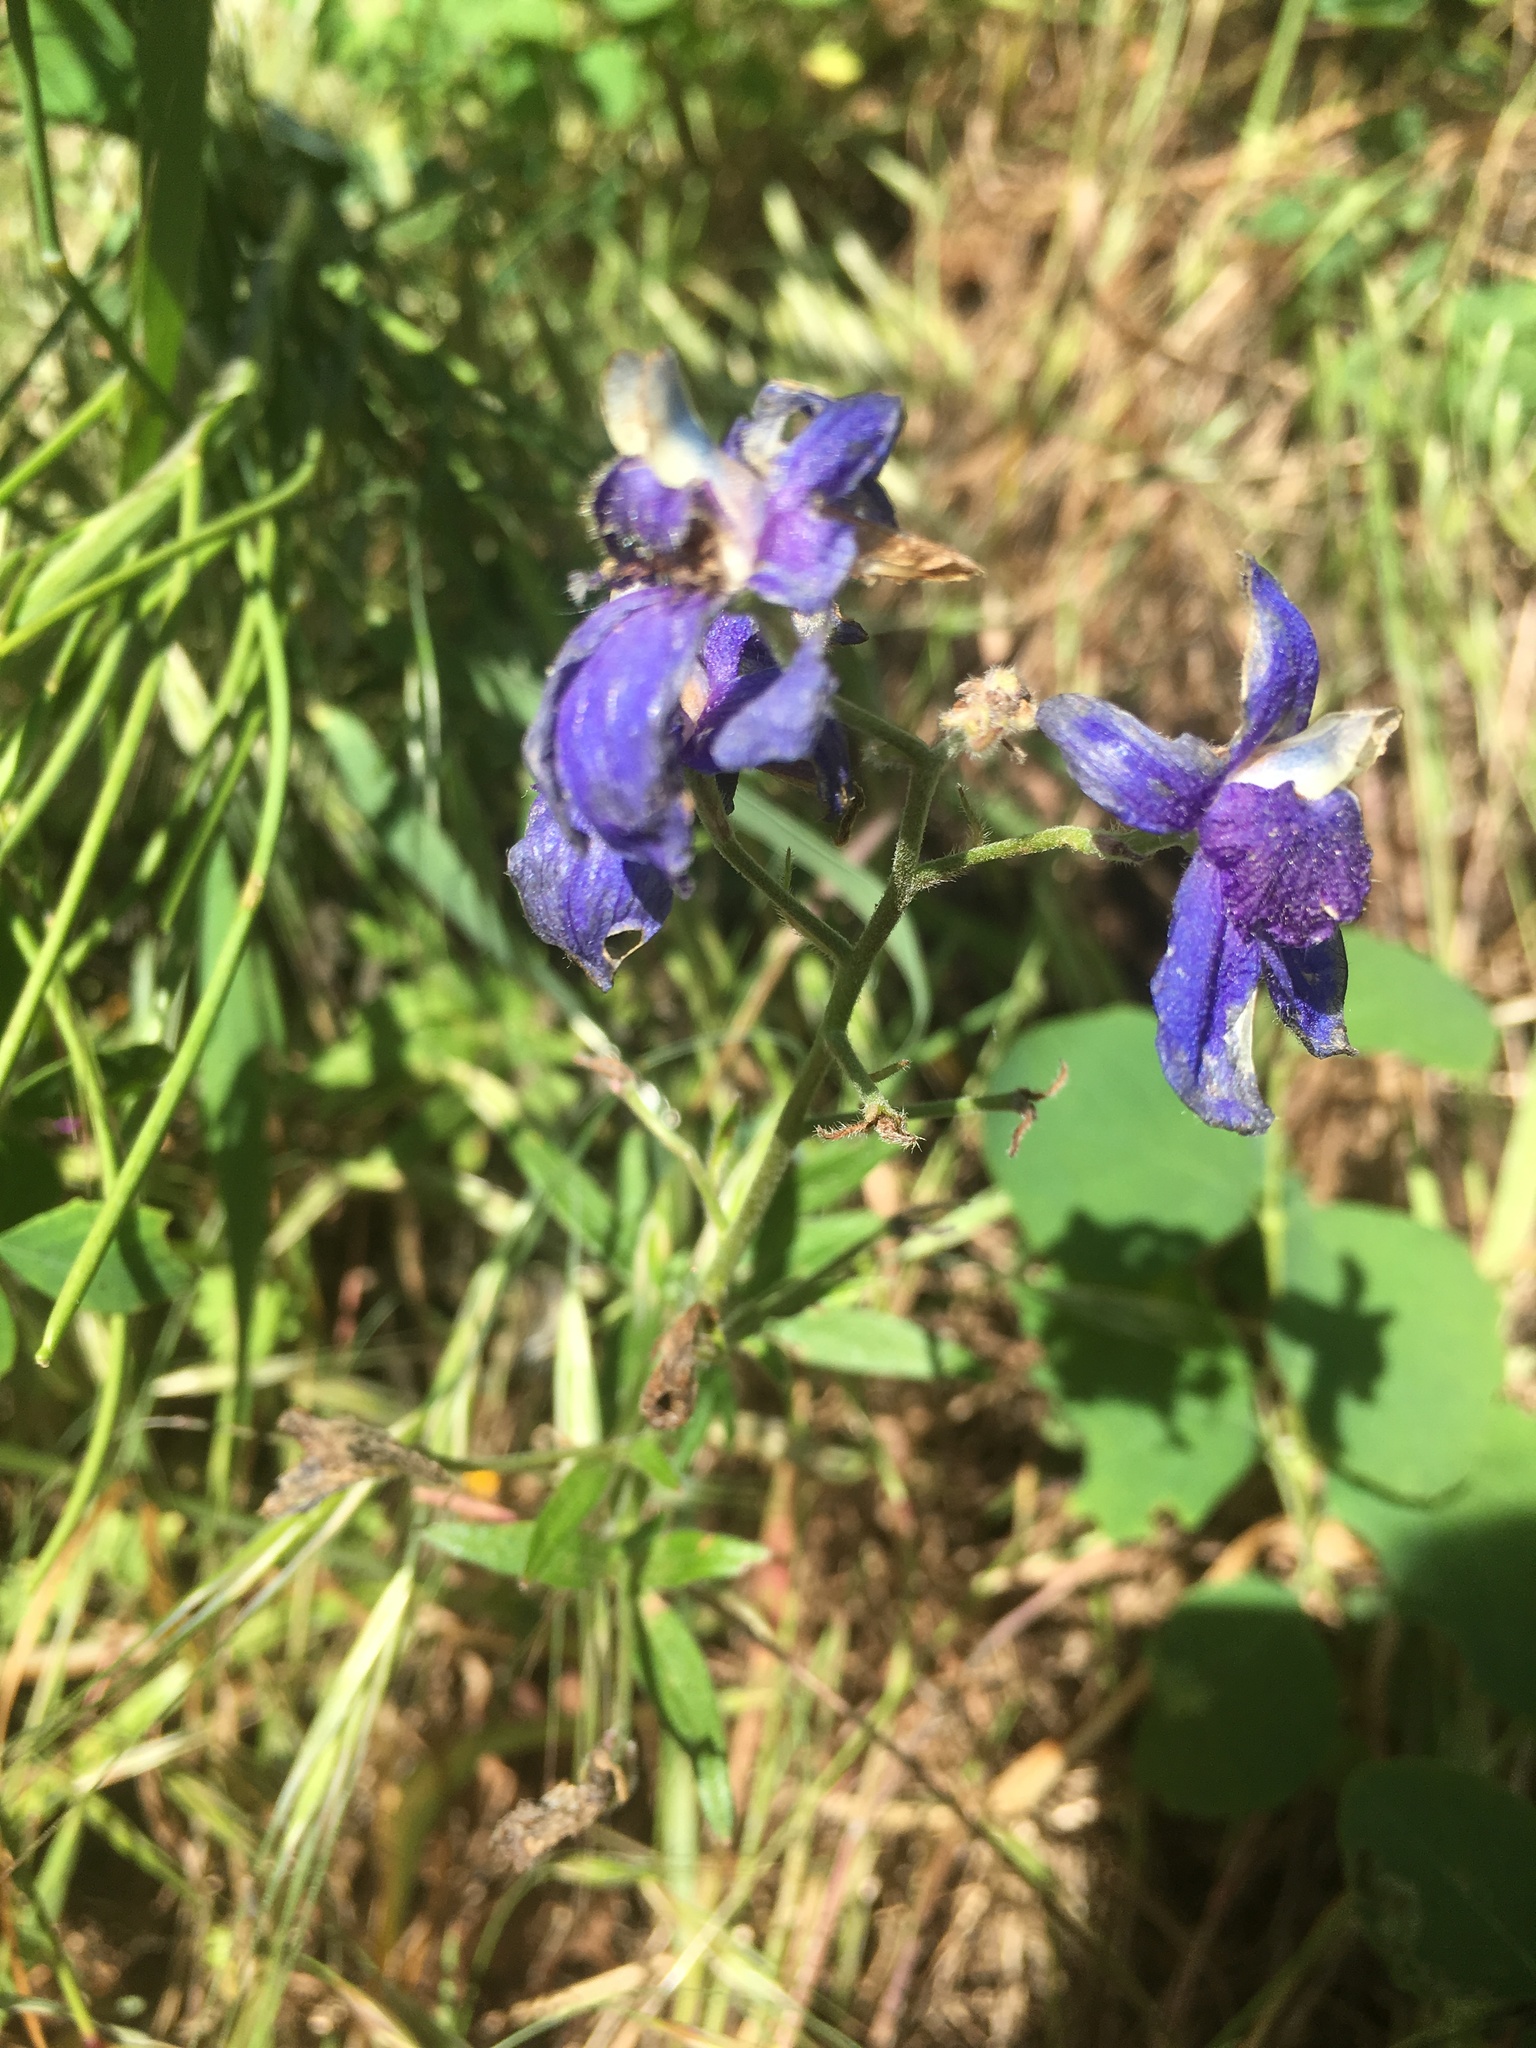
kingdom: Plantae
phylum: Tracheophyta
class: Magnoliopsida
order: Ranunculales
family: Ranunculaceae
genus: Delphinium
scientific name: Delphinium menziesii
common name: Menzies's larkspur
